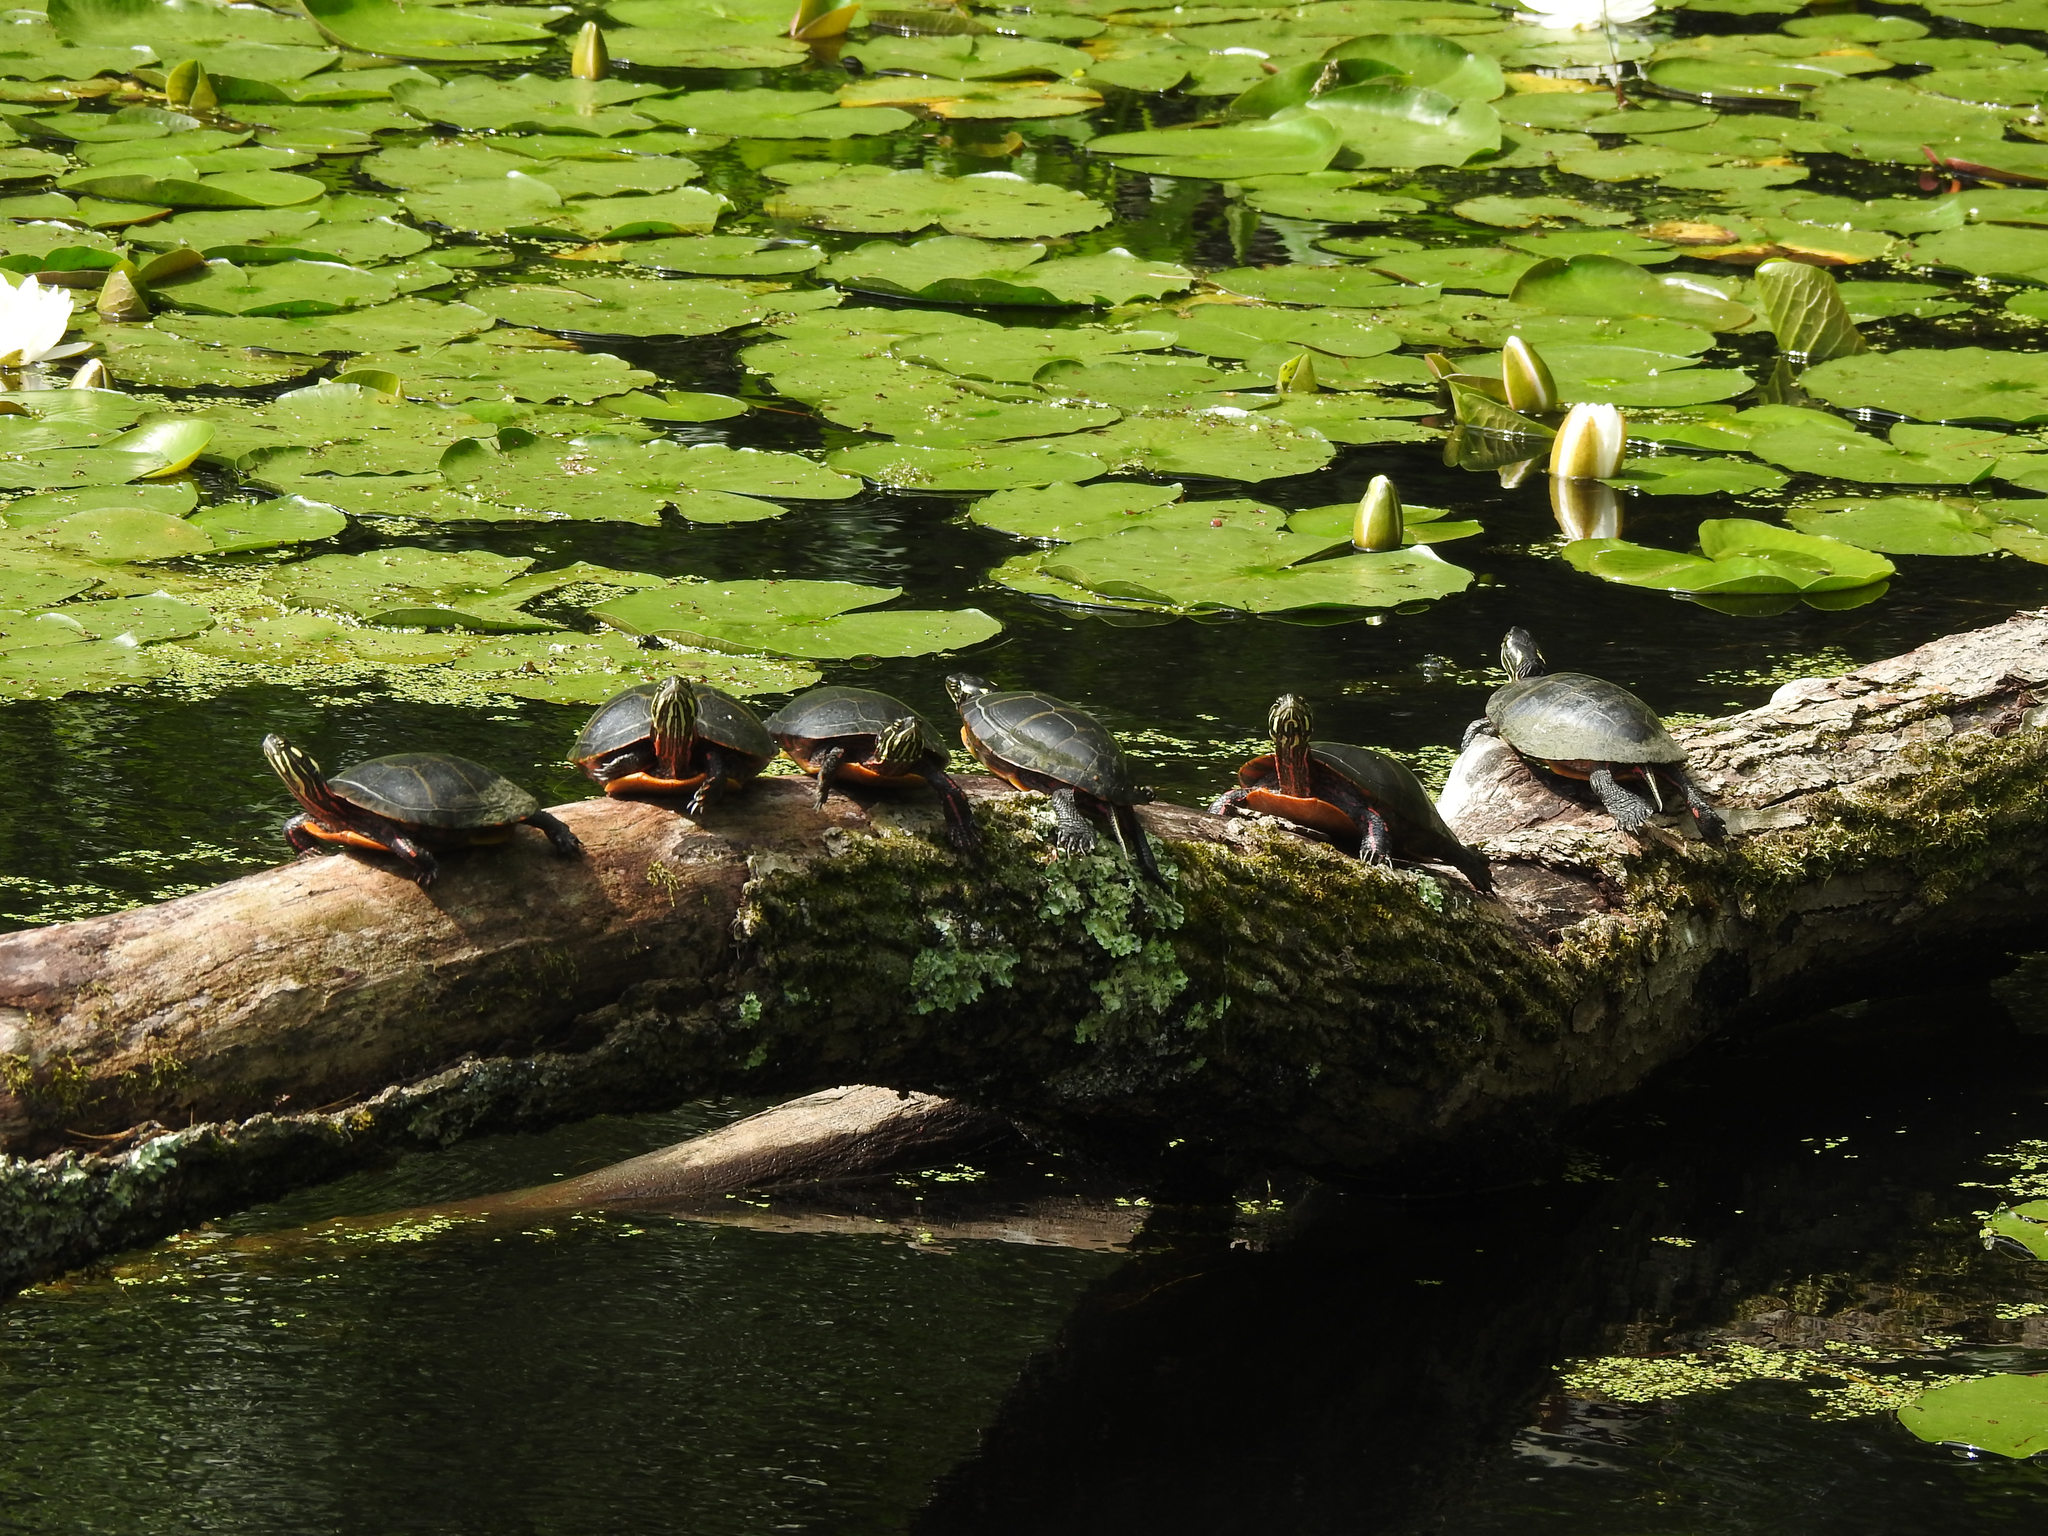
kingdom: Animalia
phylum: Chordata
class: Testudines
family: Emydidae
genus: Chrysemys
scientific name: Chrysemys picta
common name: Painted turtle
